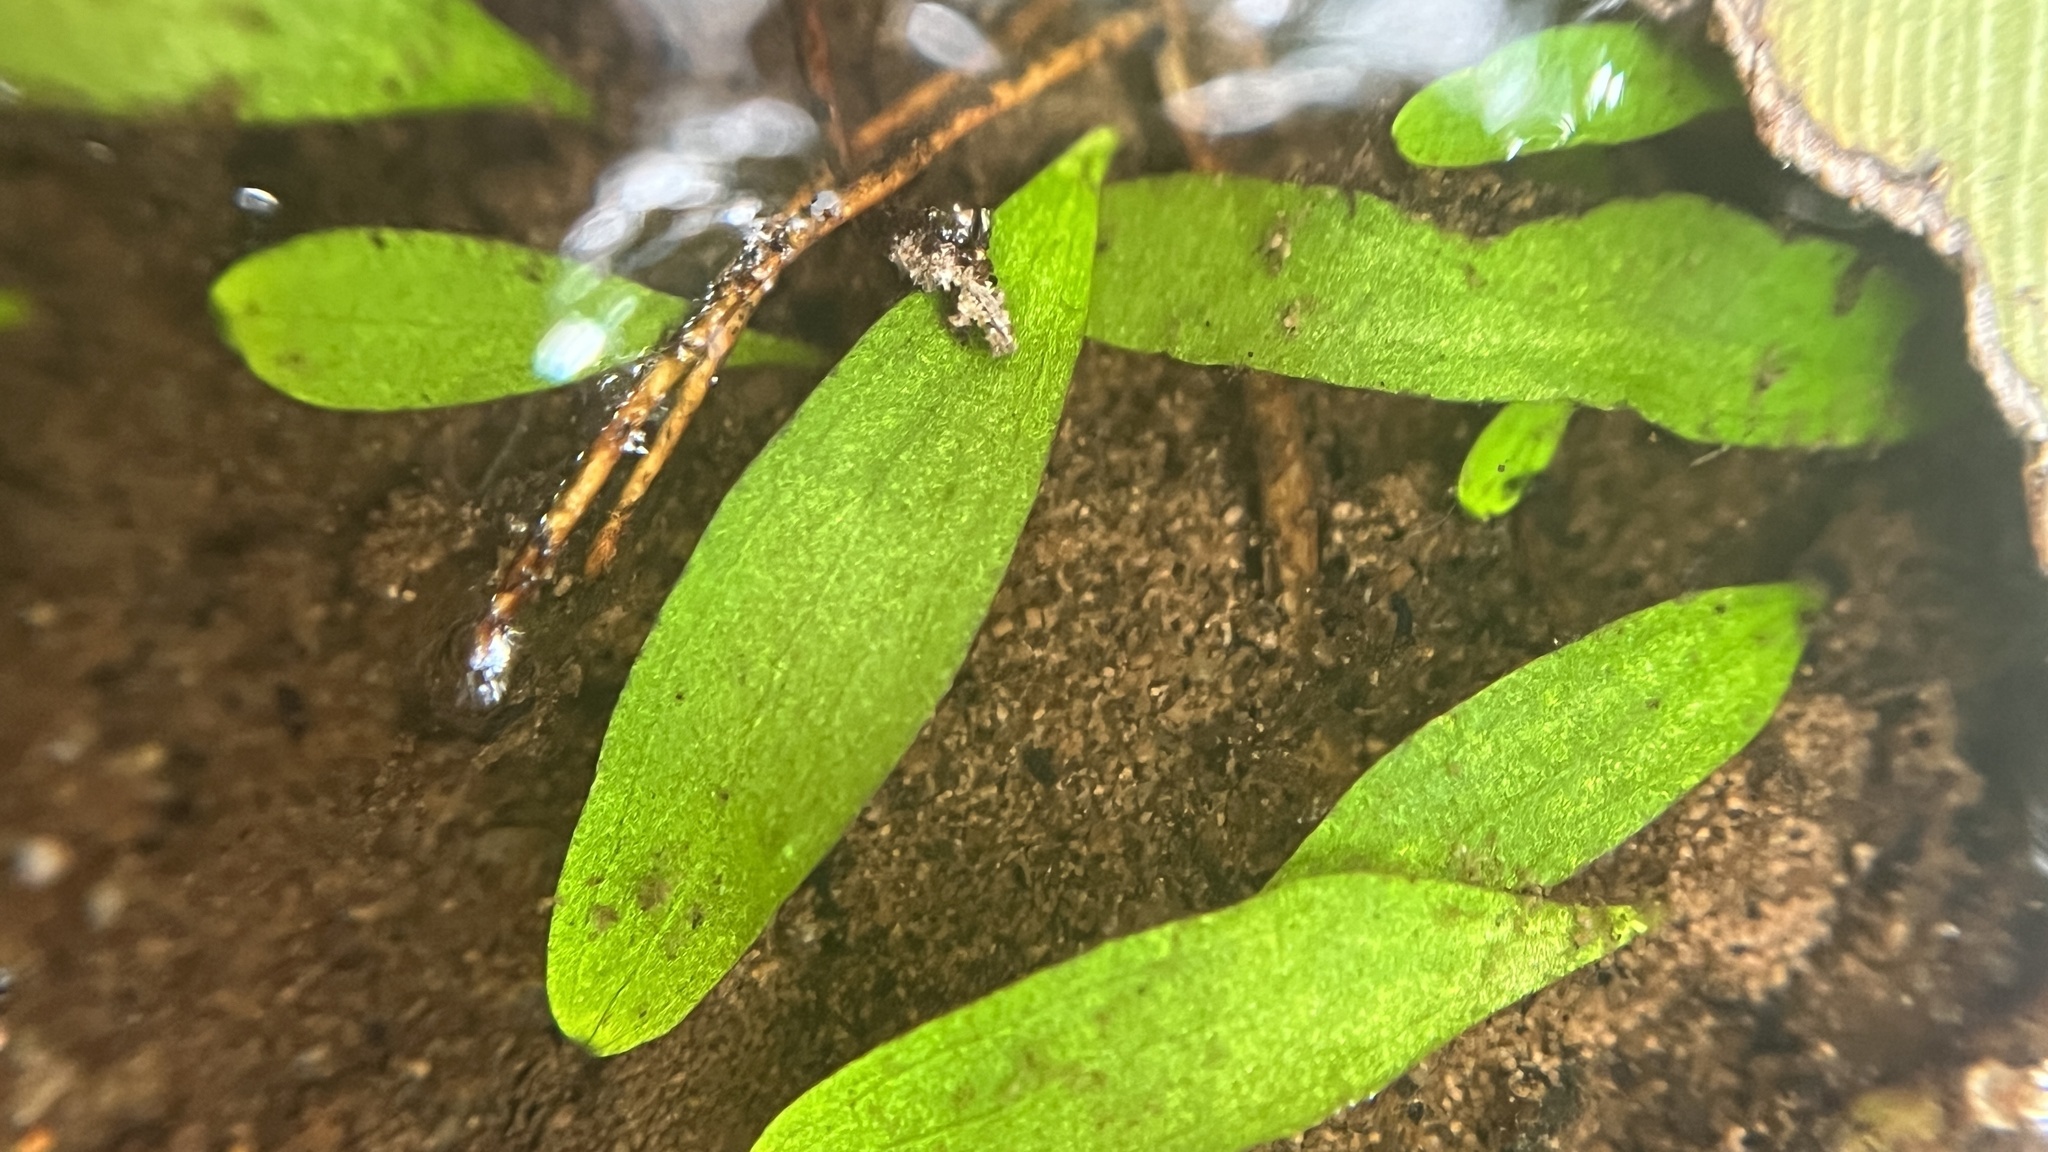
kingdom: Plantae
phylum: Tracheophyta
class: Magnoliopsida
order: Lamiales
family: Lentibulariaceae
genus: Utricularia
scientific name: Utricularia uliginosa
